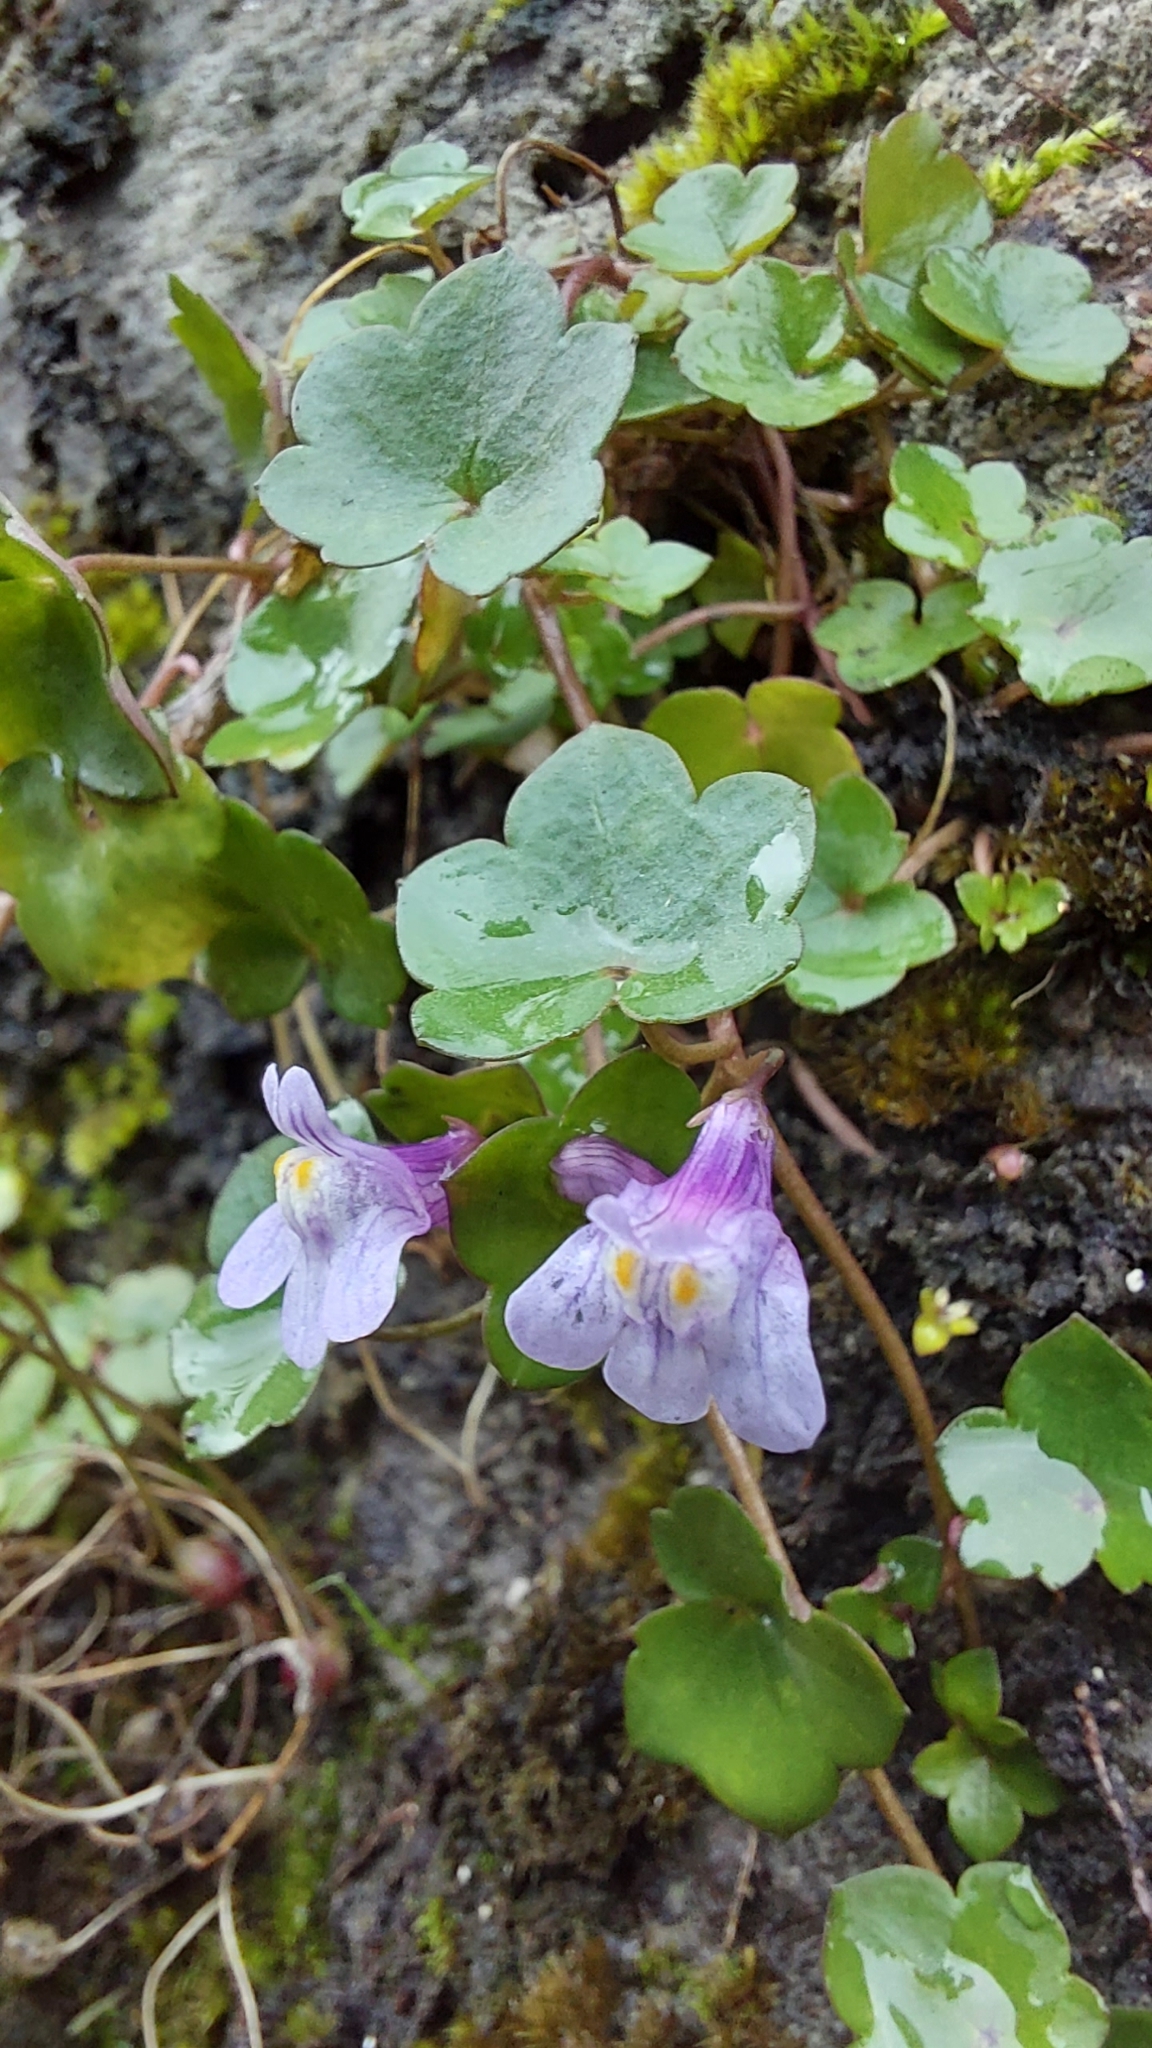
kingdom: Plantae
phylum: Tracheophyta
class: Magnoliopsida
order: Lamiales
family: Plantaginaceae
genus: Cymbalaria
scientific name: Cymbalaria muralis
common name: Ivy-leaved toadflax
